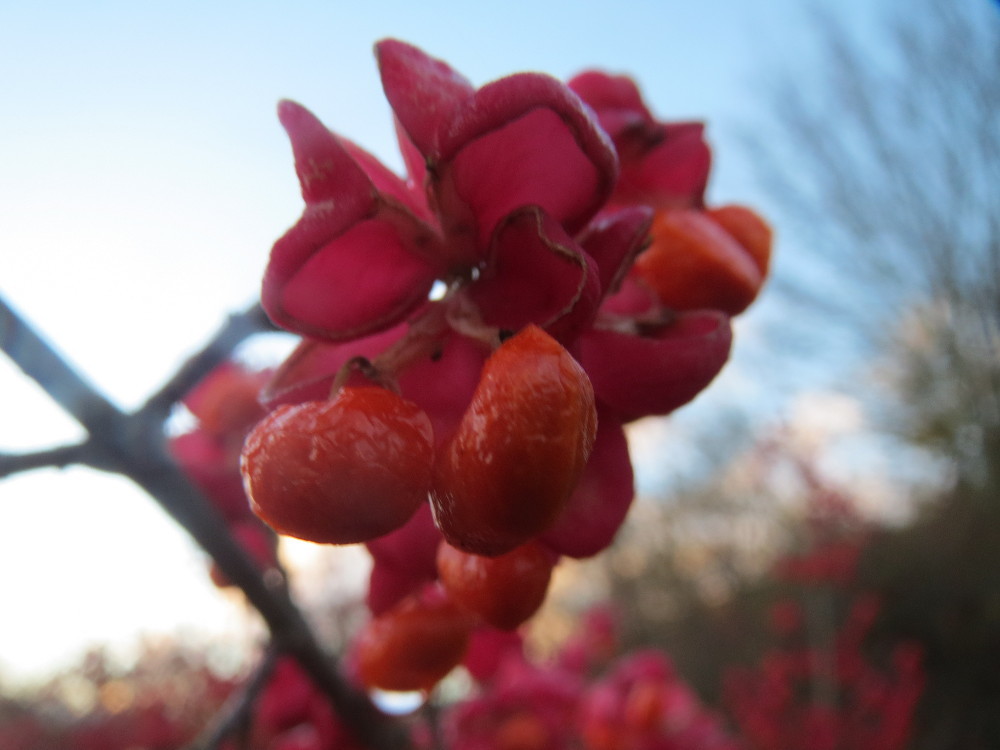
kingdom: Plantae
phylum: Tracheophyta
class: Magnoliopsida
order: Celastrales
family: Celastraceae
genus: Euonymus
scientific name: Euonymus europaeus
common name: Spindle
